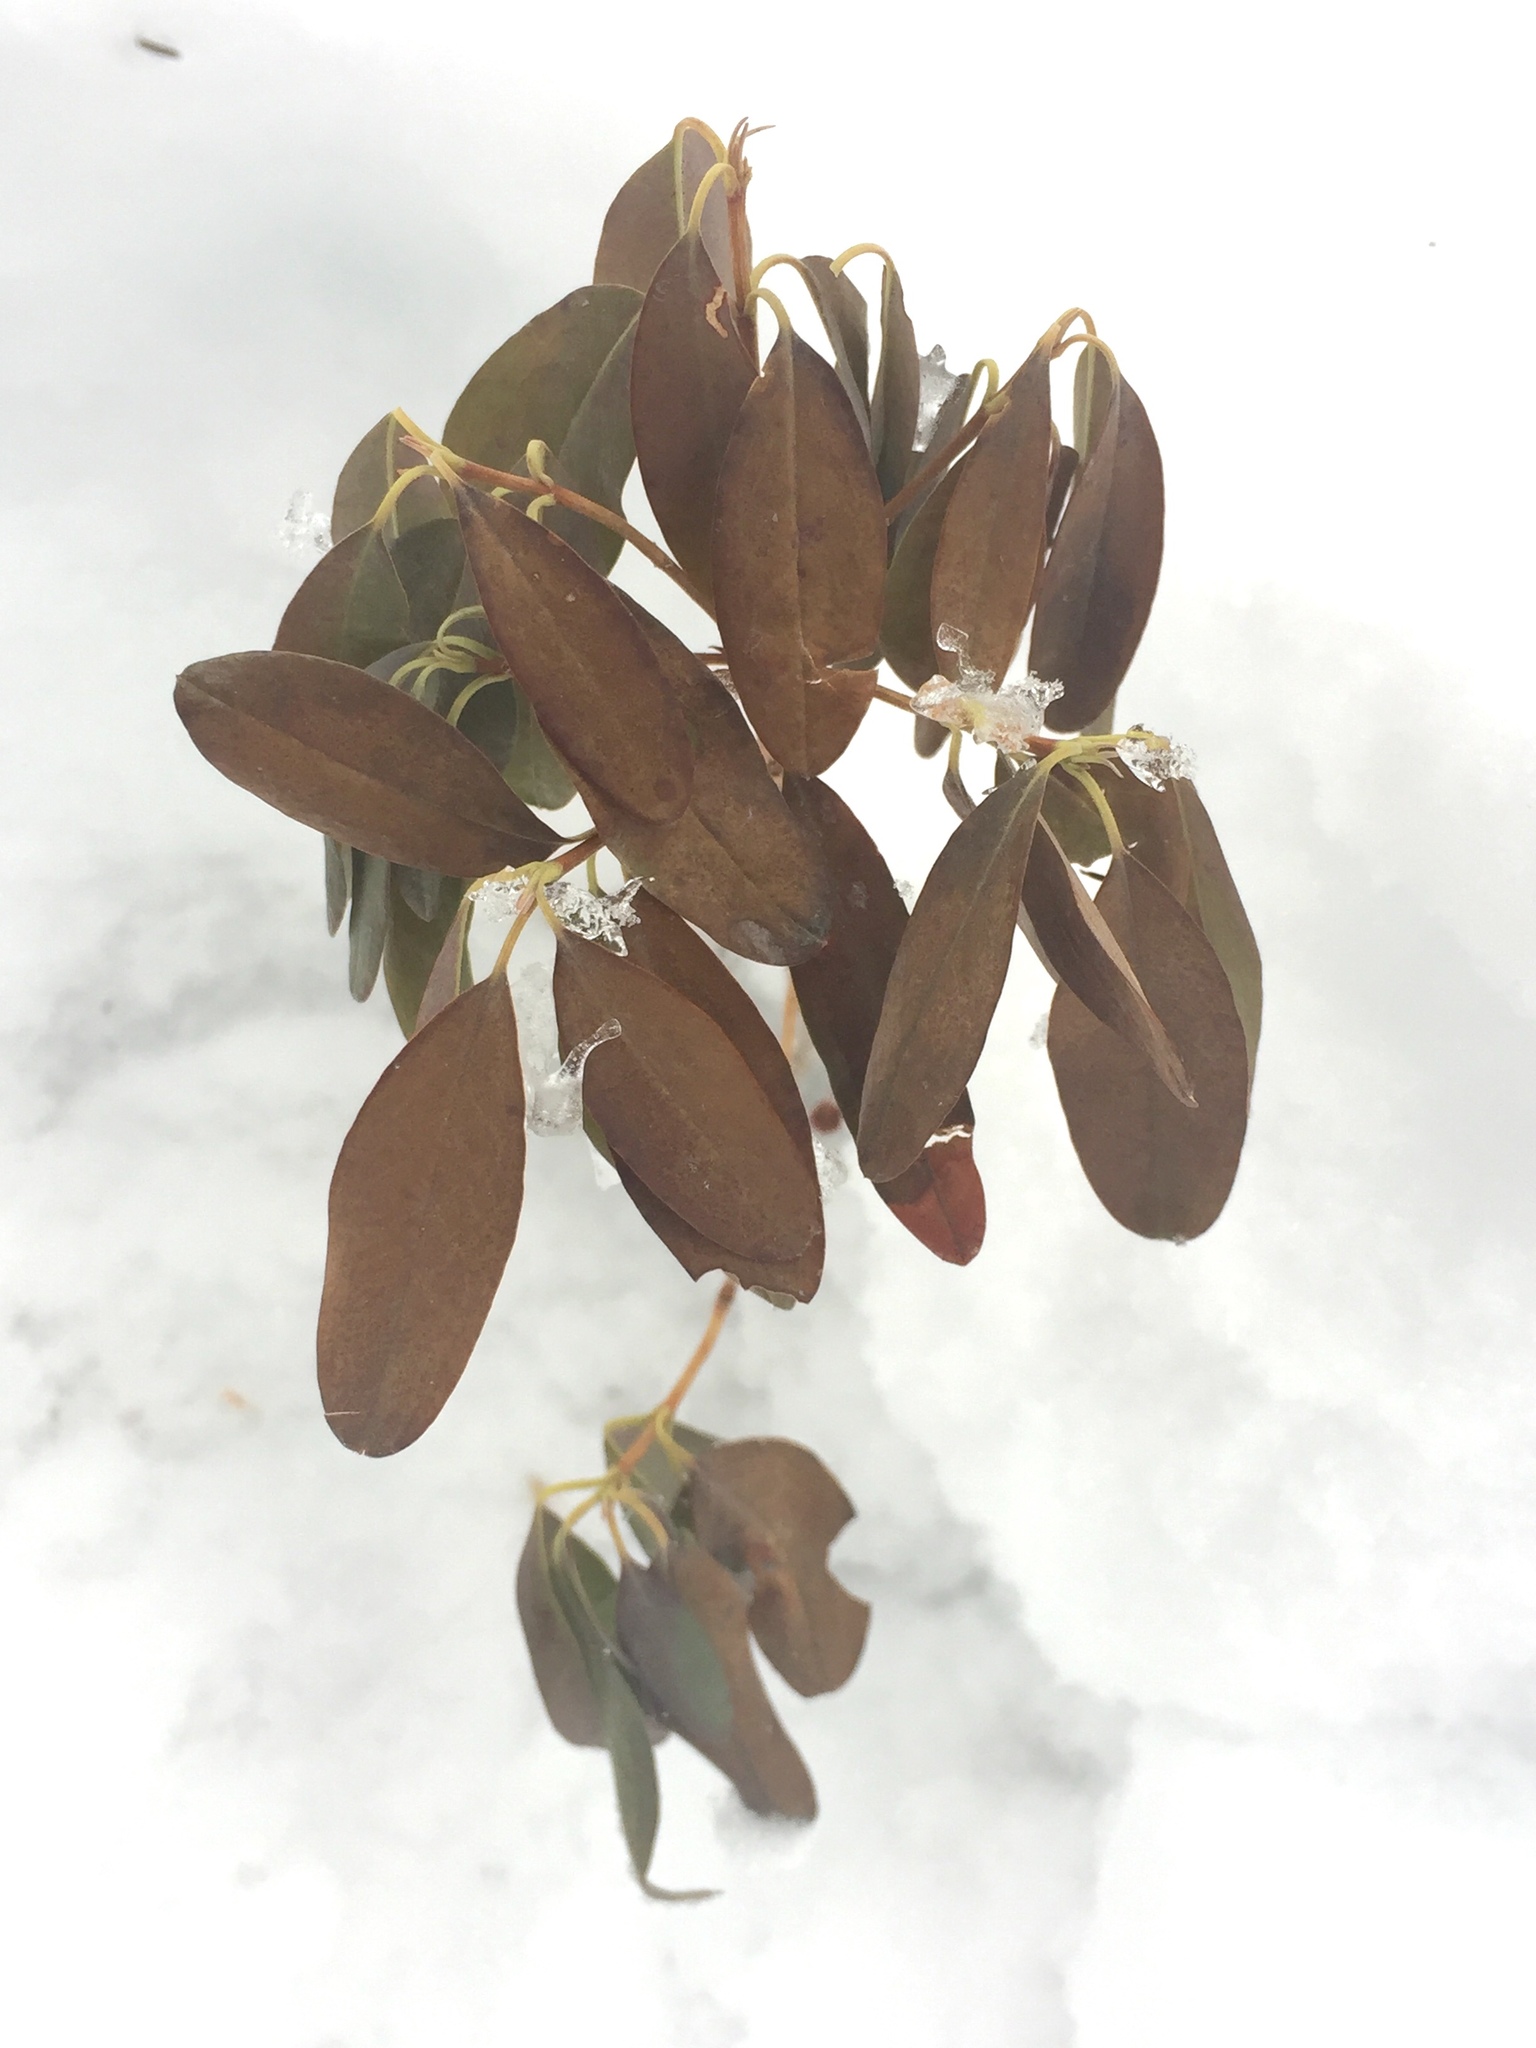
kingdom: Plantae
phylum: Tracheophyta
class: Magnoliopsida
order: Ericales
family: Ericaceae
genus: Kalmia
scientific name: Kalmia angustifolia
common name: Sheep-laurel
